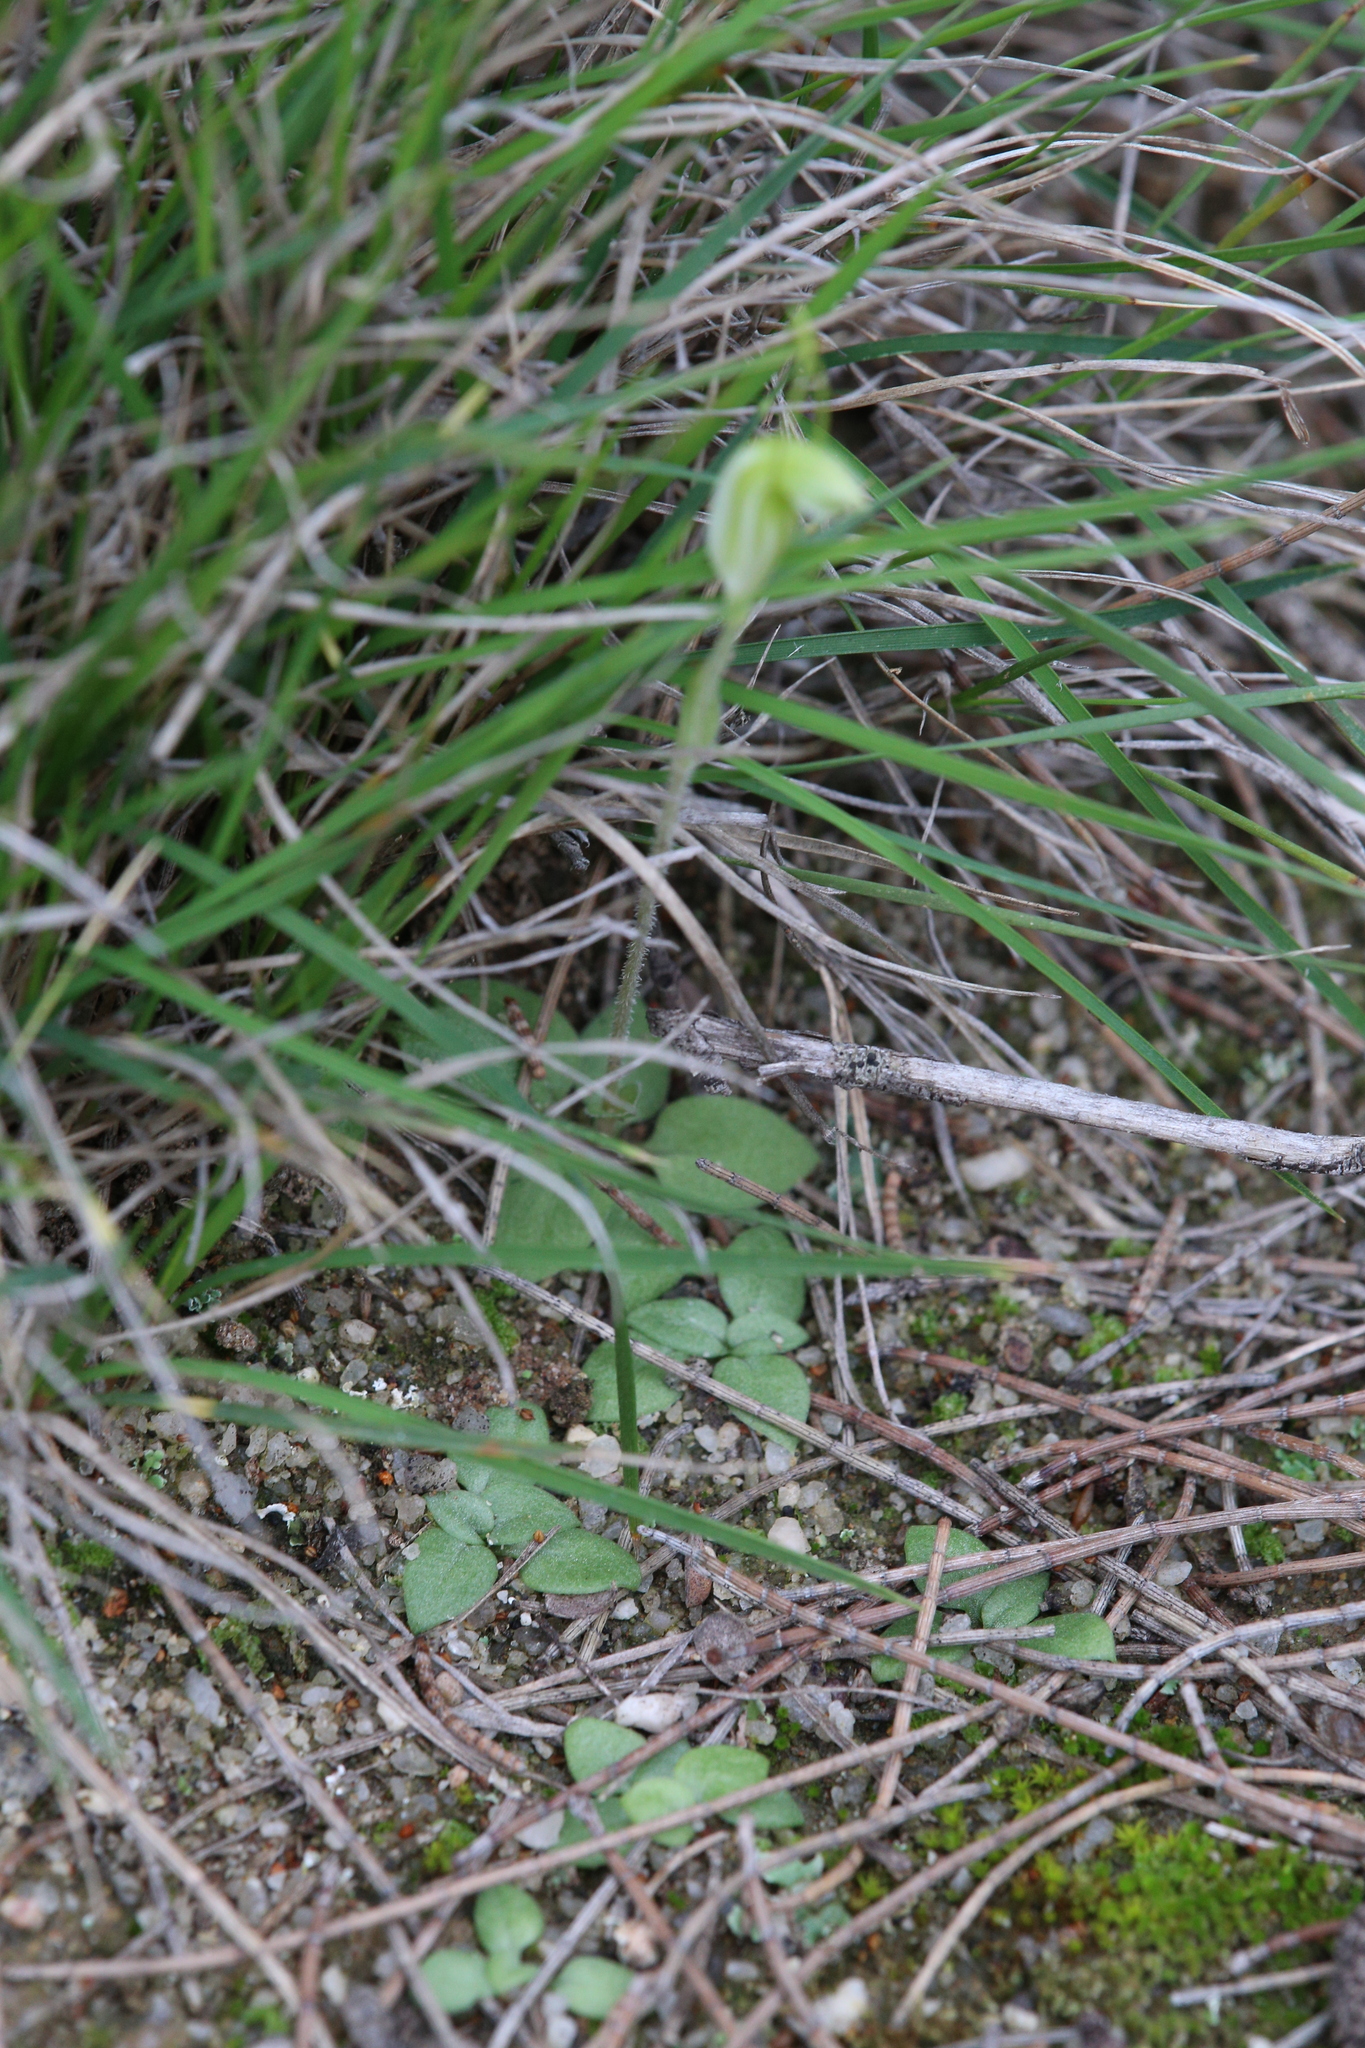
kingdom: Plantae
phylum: Tracheophyta
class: Liliopsida
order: Asparagales
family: Orchidaceae
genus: Pterostylis
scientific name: Pterostylis setulosa
